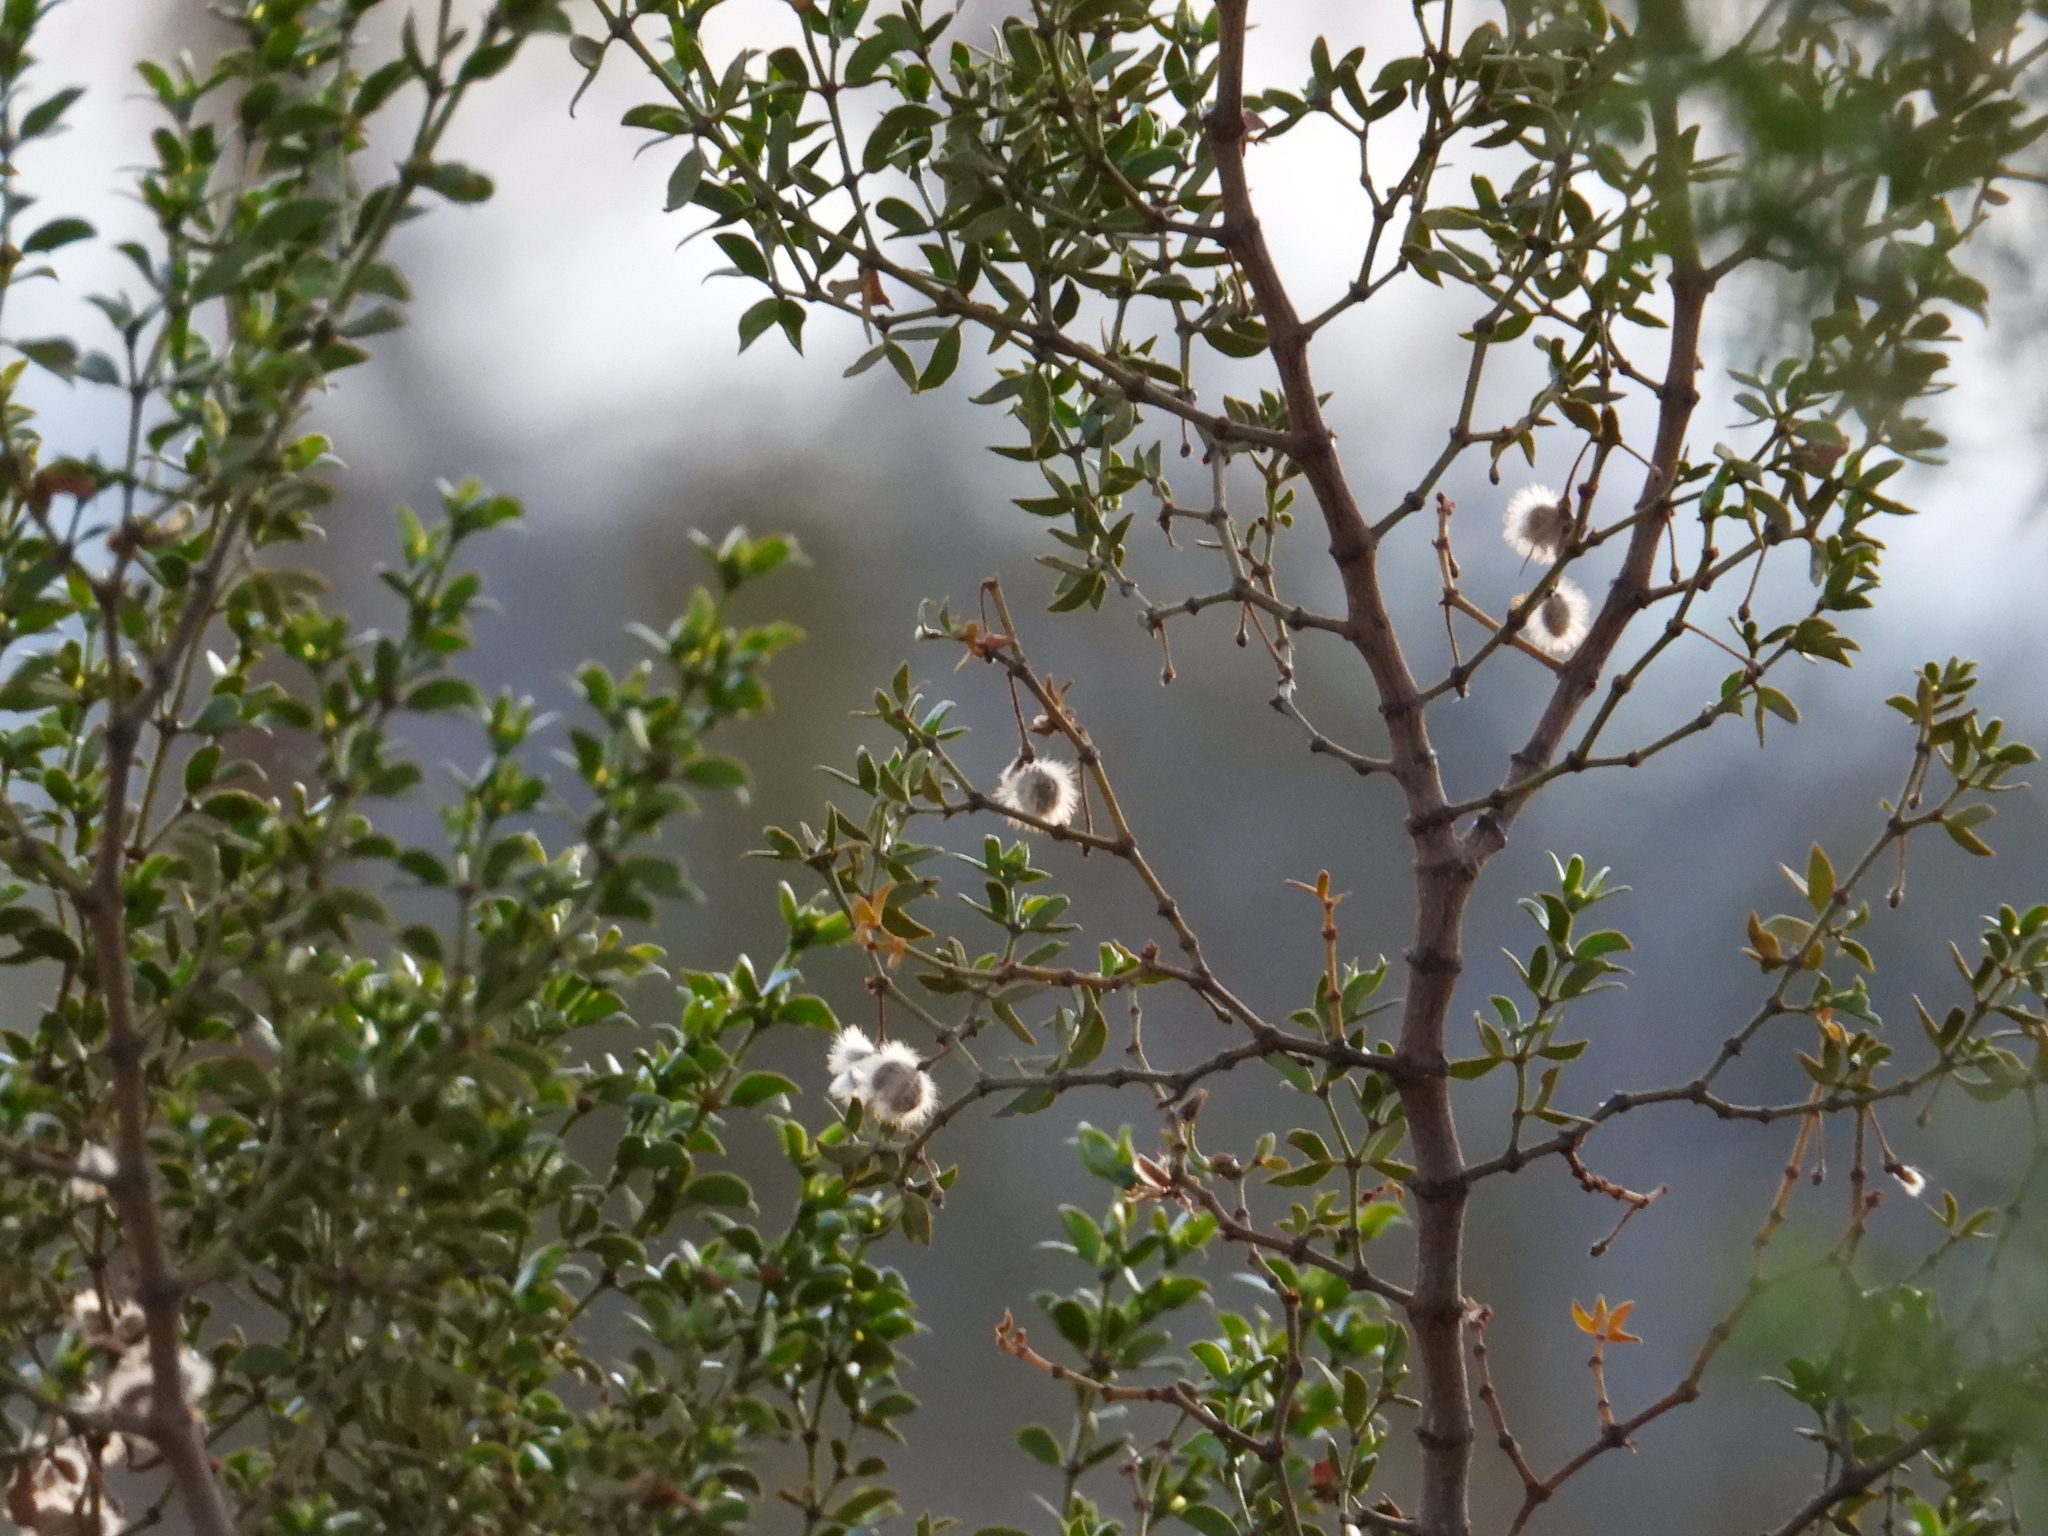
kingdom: Plantae
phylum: Tracheophyta
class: Magnoliopsida
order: Zygophyllales
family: Zygophyllaceae
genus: Larrea
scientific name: Larrea tridentata
